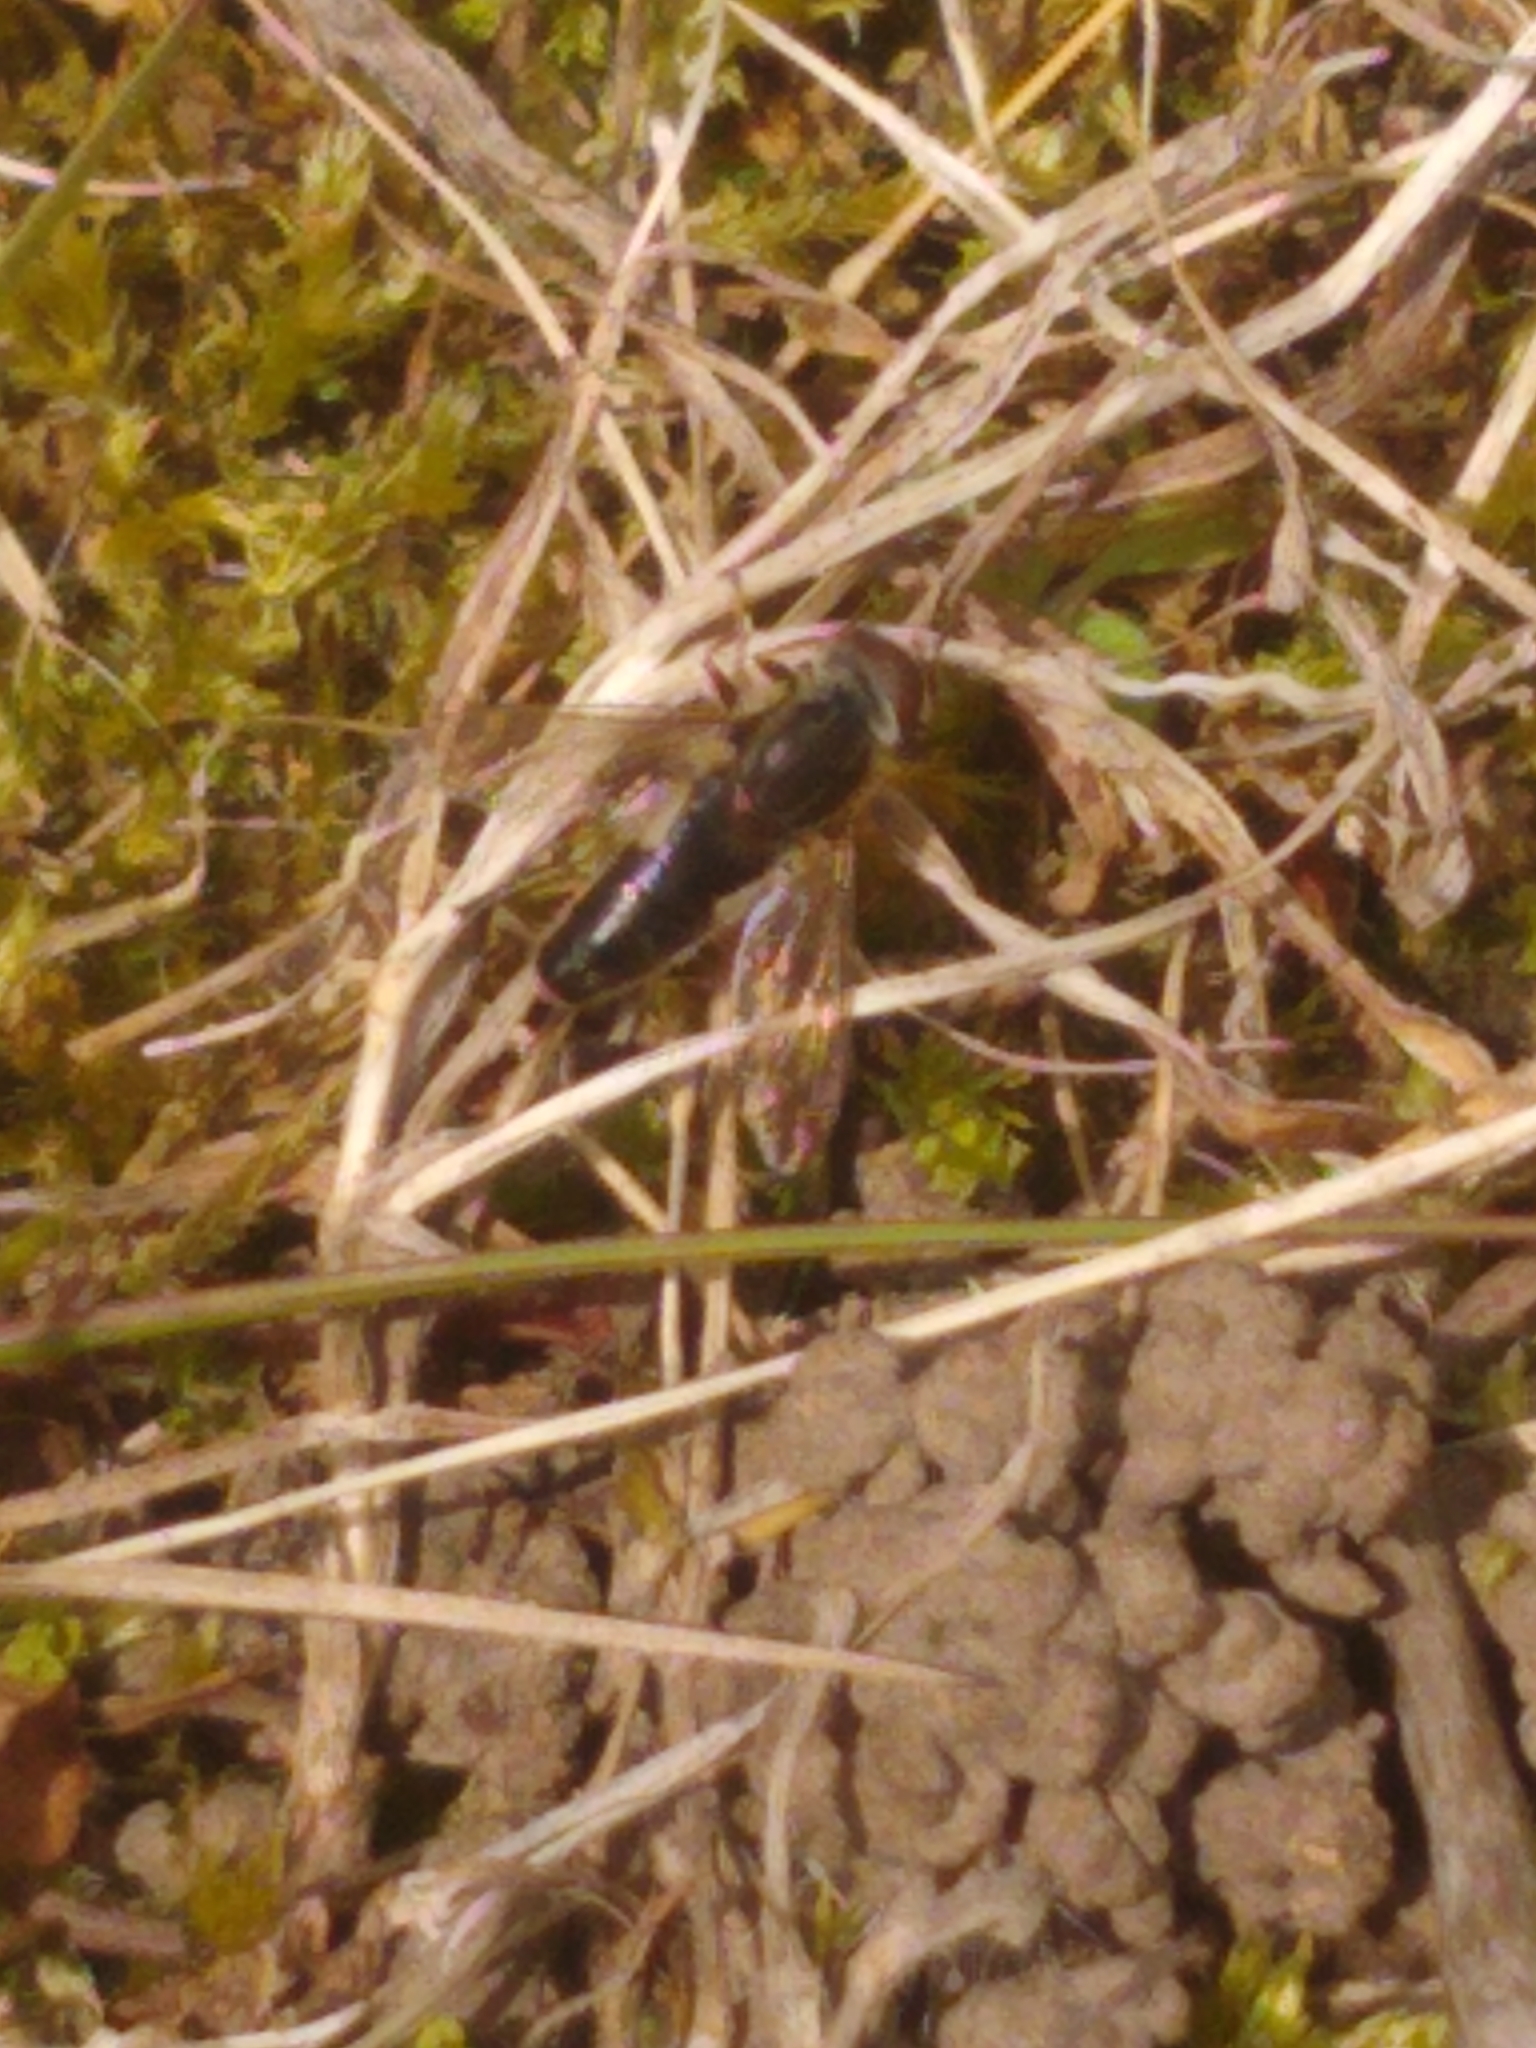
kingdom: Animalia
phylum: Arthropoda
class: Insecta
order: Diptera
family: Syrphidae
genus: Anasimyia
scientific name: Anasimyia bilinearis
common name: Two-lined swamp fly
